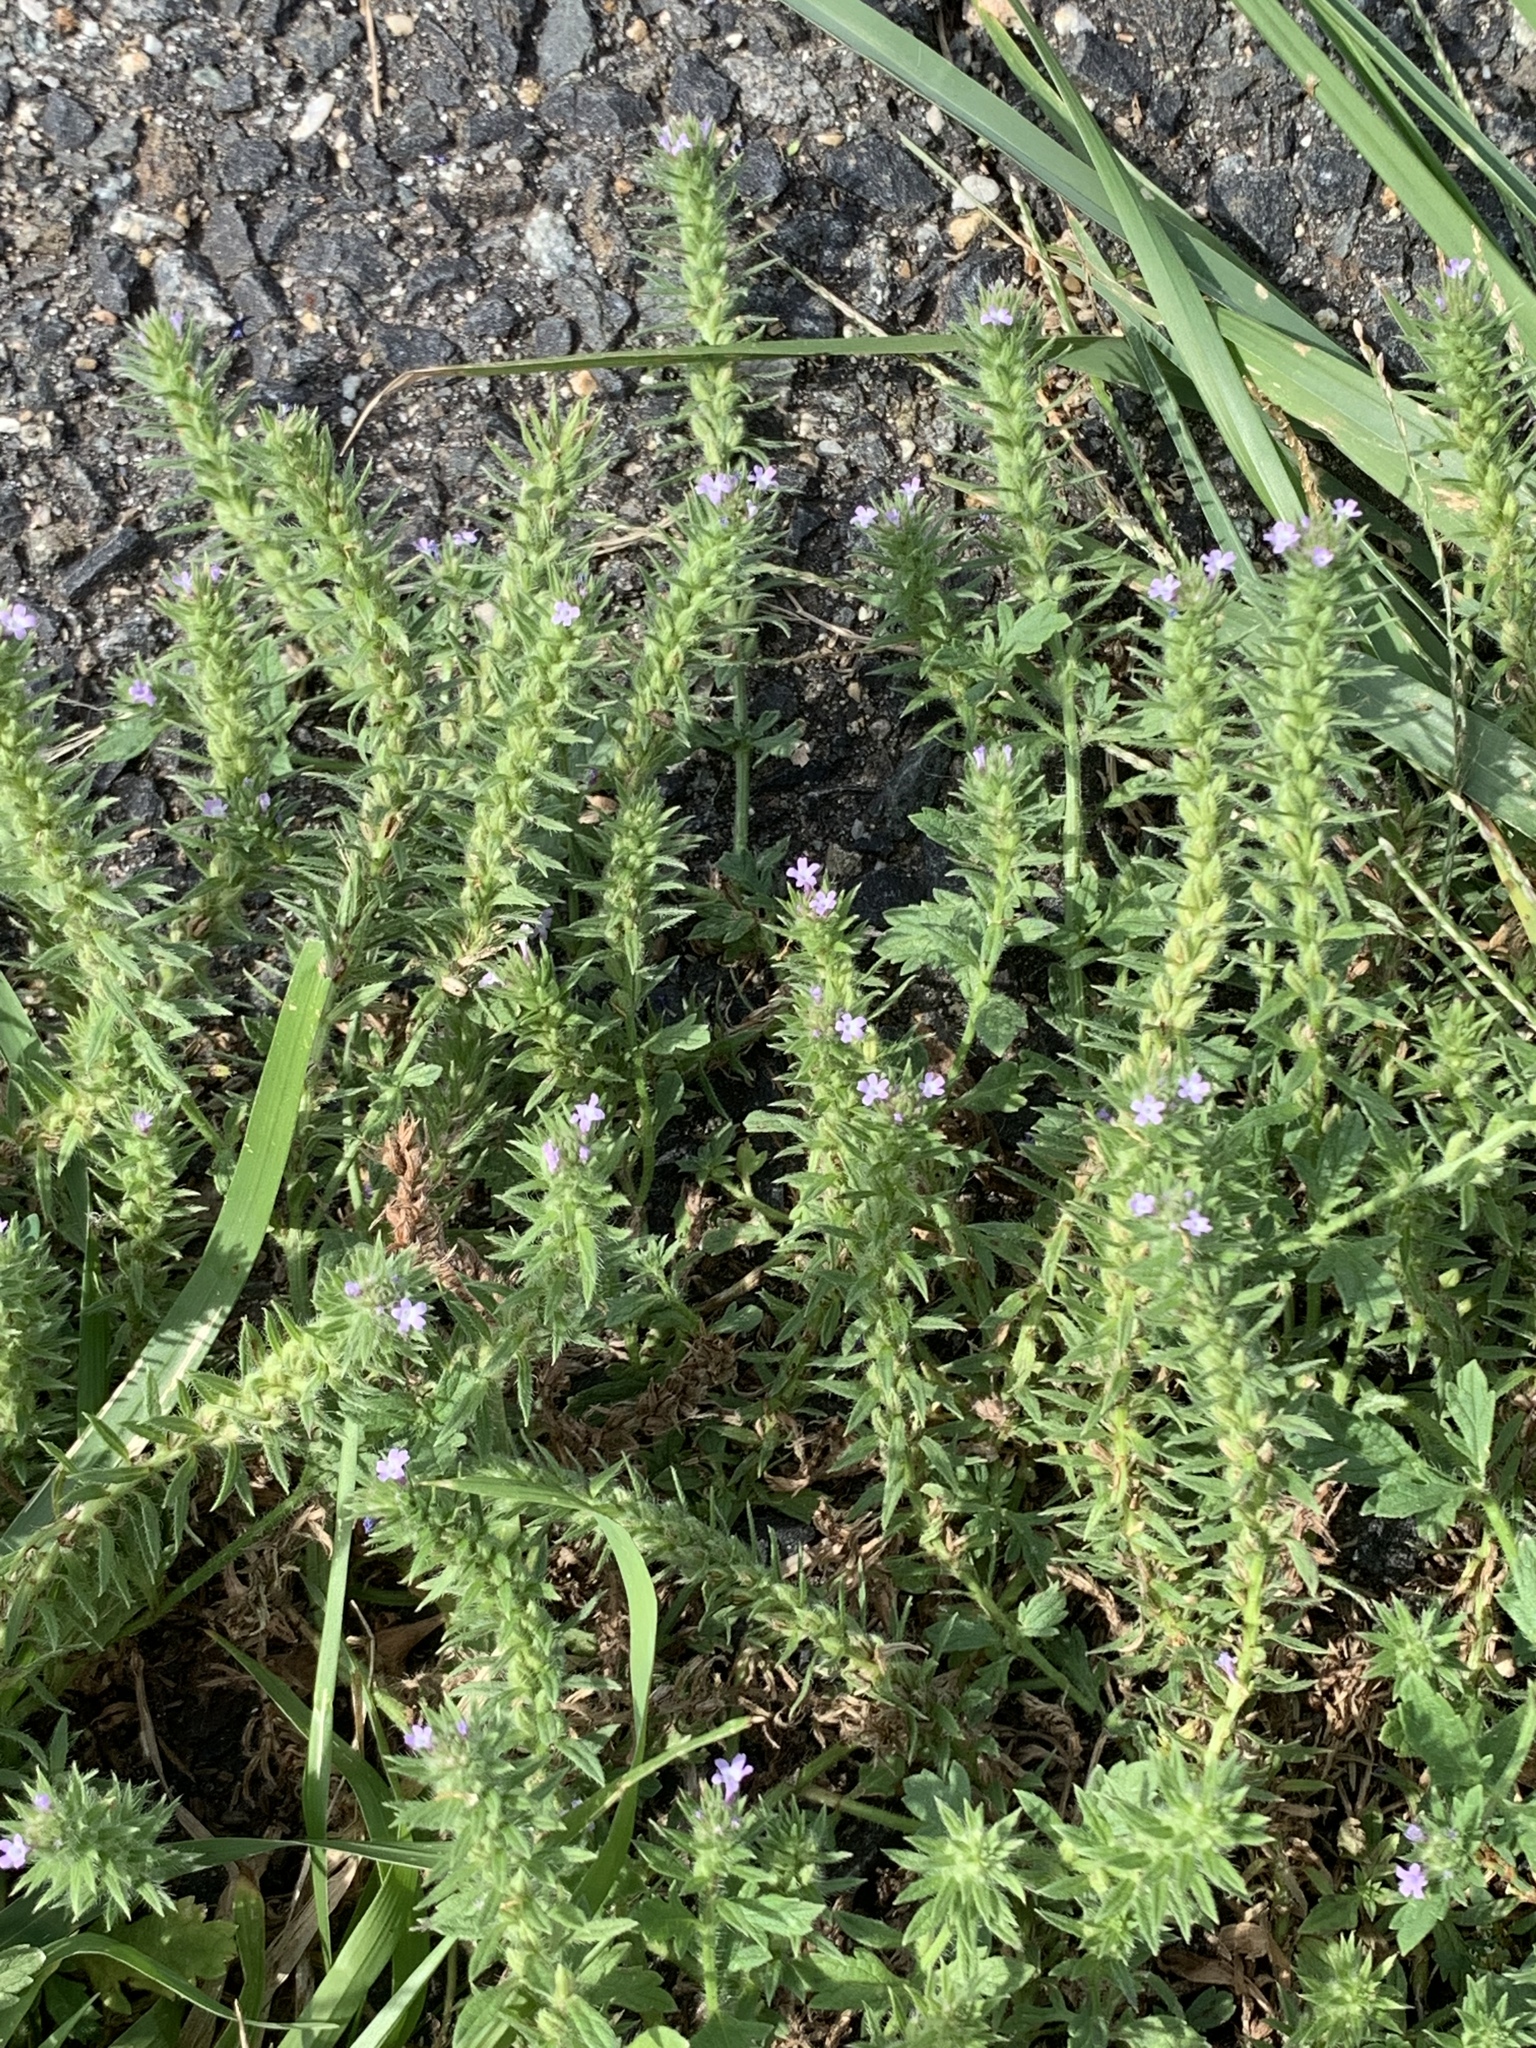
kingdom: Plantae
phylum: Tracheophyta
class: Magnoliopsida
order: Lamiales
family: Verbenaceae
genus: Verbena
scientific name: Verbena bracteata
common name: Bracted vervain
